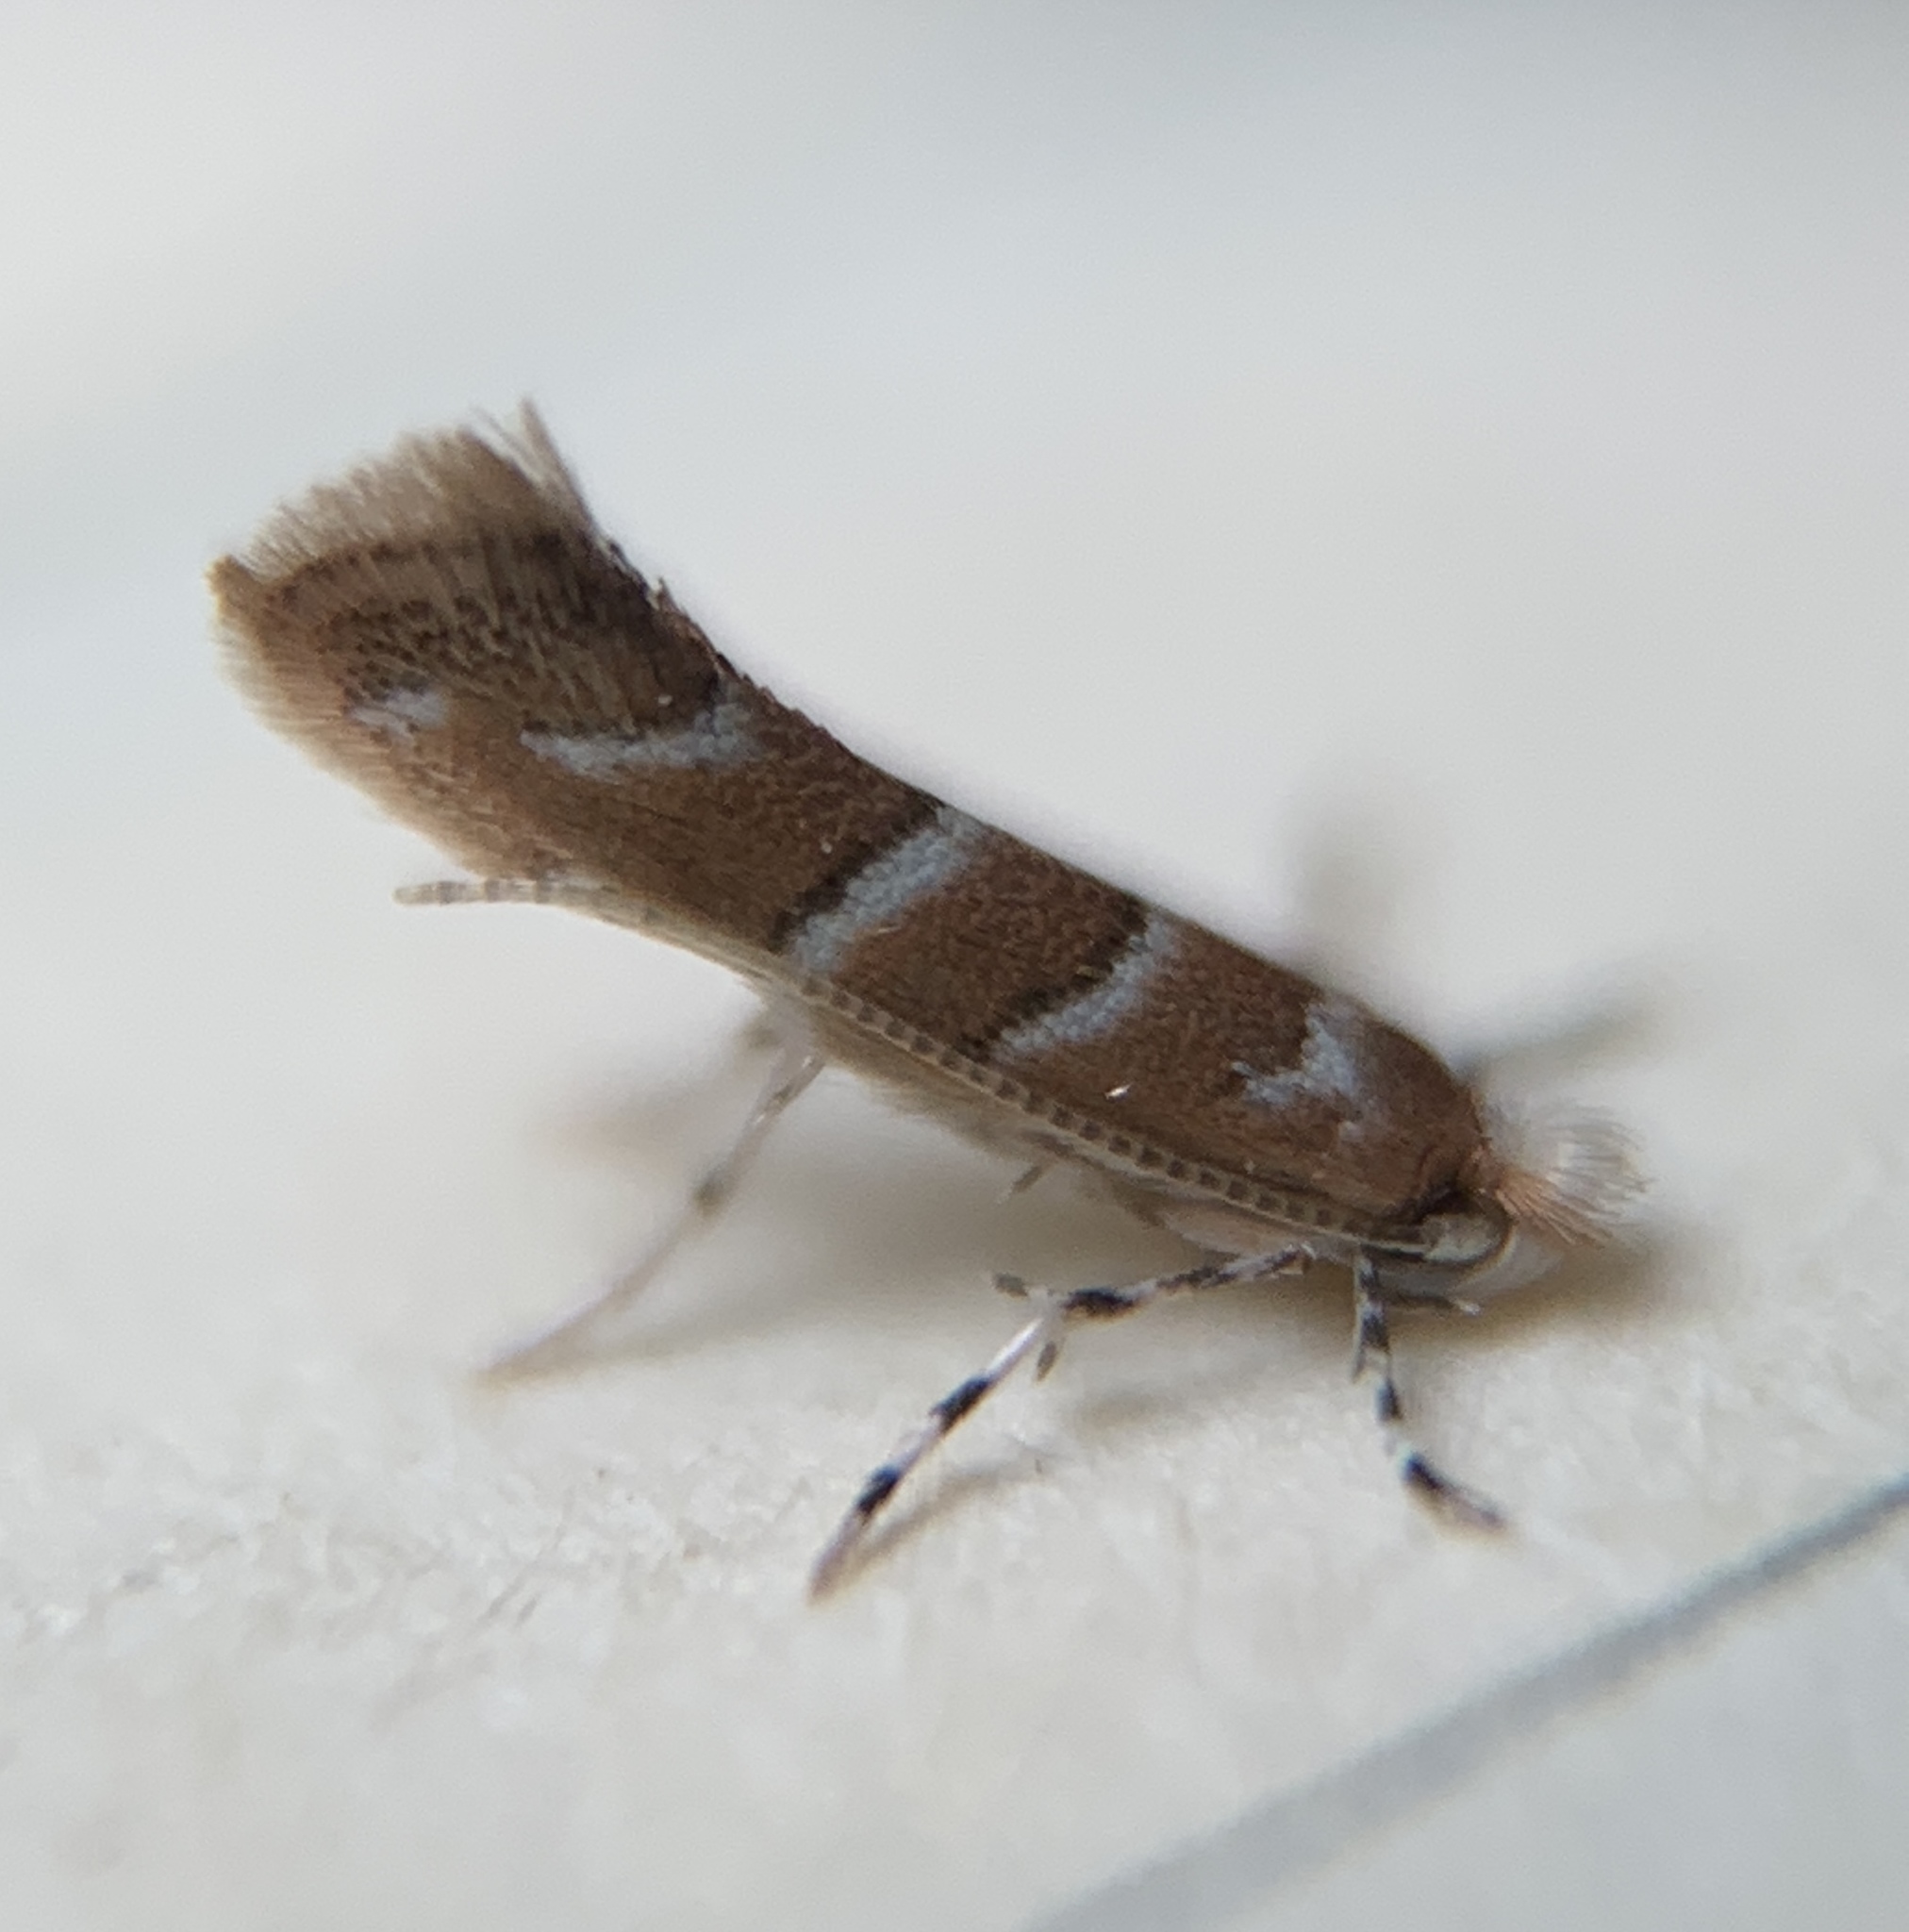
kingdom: Animalia
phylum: Arthropoda
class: Insecta
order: Lepidoptera
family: Gracillariidae
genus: Cameraria
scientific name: Cameraria ostryarella
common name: Hophornbeam blotchminer
